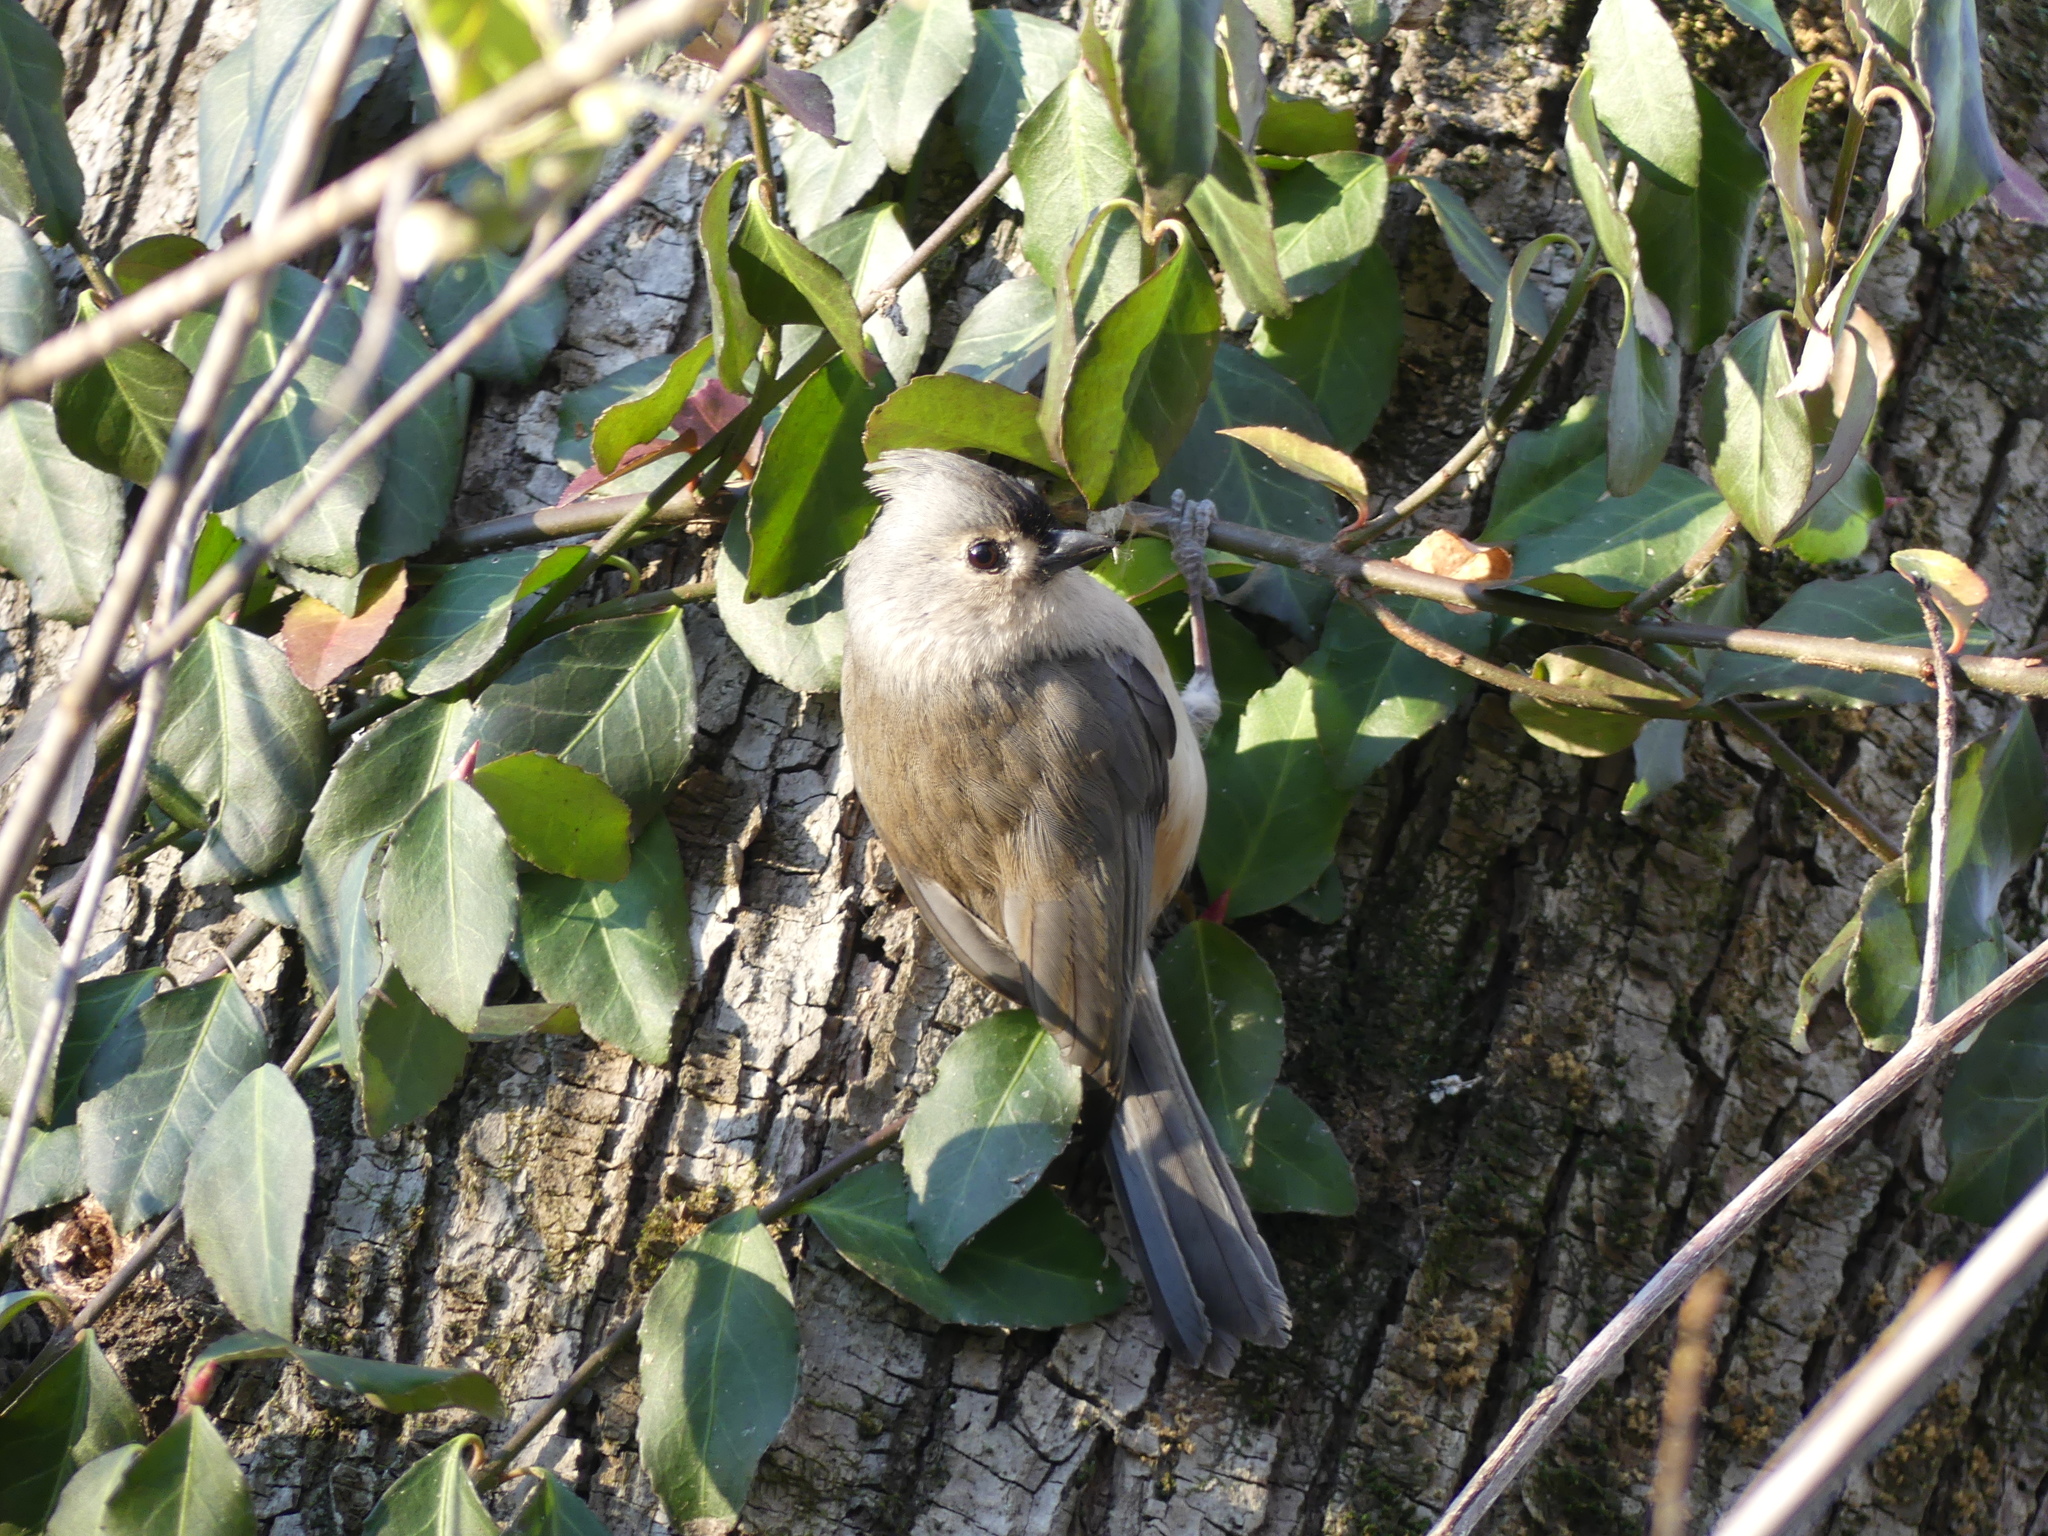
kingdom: Animalia
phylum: Chordata
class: Aves
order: Passeriformes
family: Paridae
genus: Baeolophus
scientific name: Baeolophus bicolor
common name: Tufted titmouse
